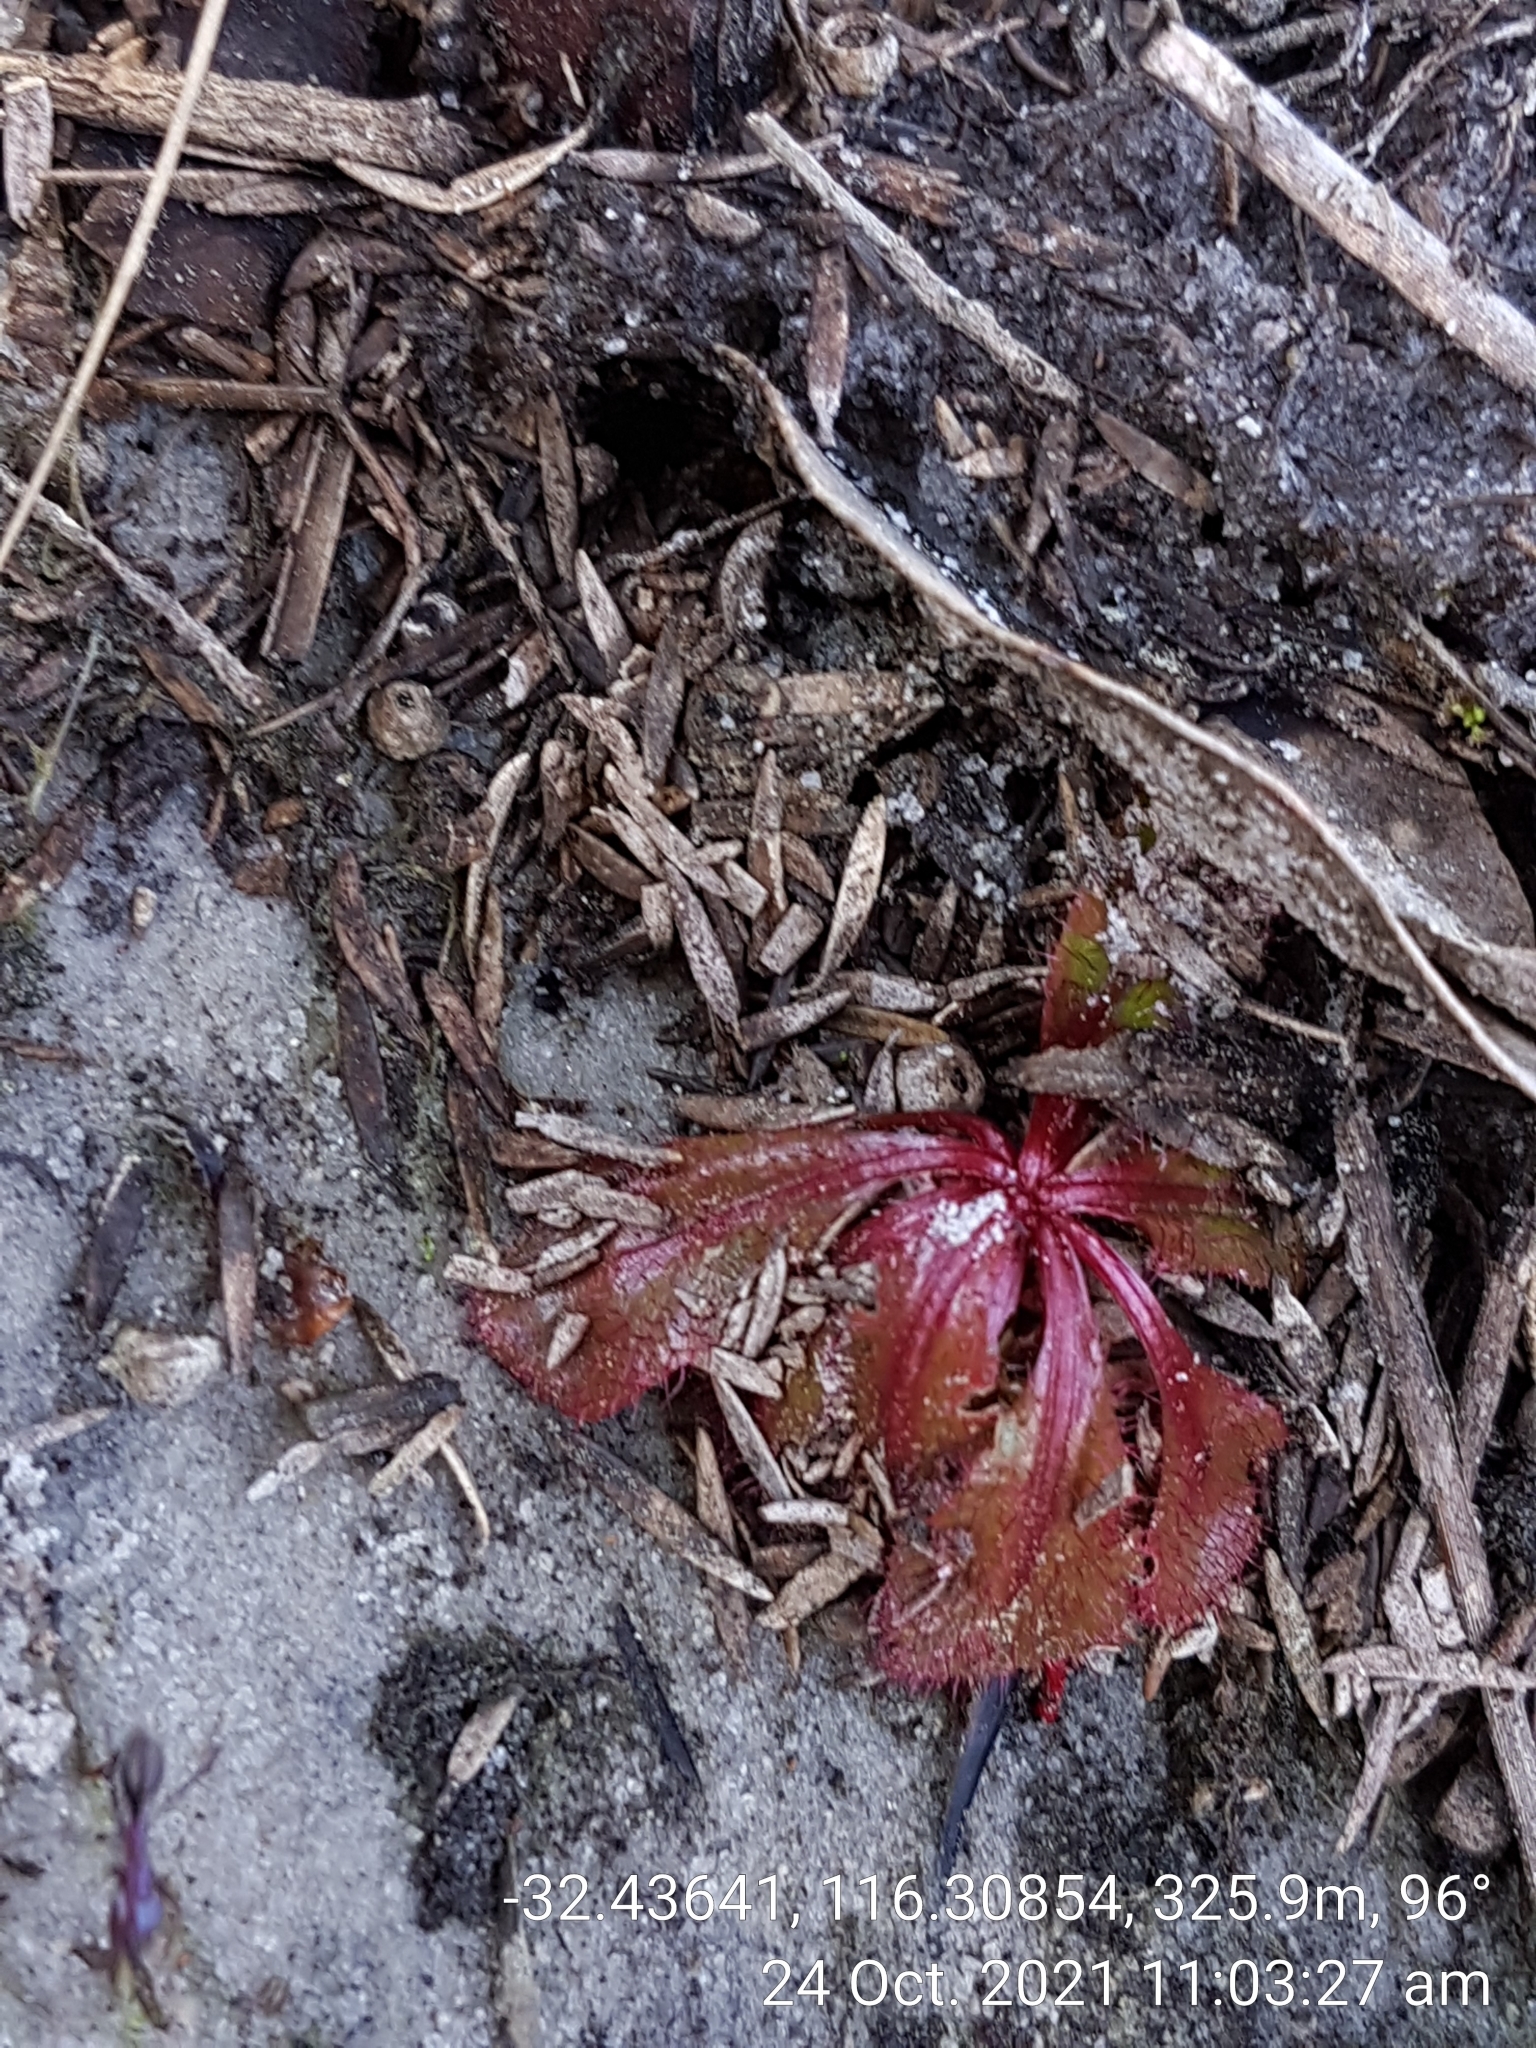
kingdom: Plantae
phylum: Tracheophyta
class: Magnoliopsida
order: Caryophyllales
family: Droseraceae
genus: Drosera
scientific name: Drosera tubaestylis
